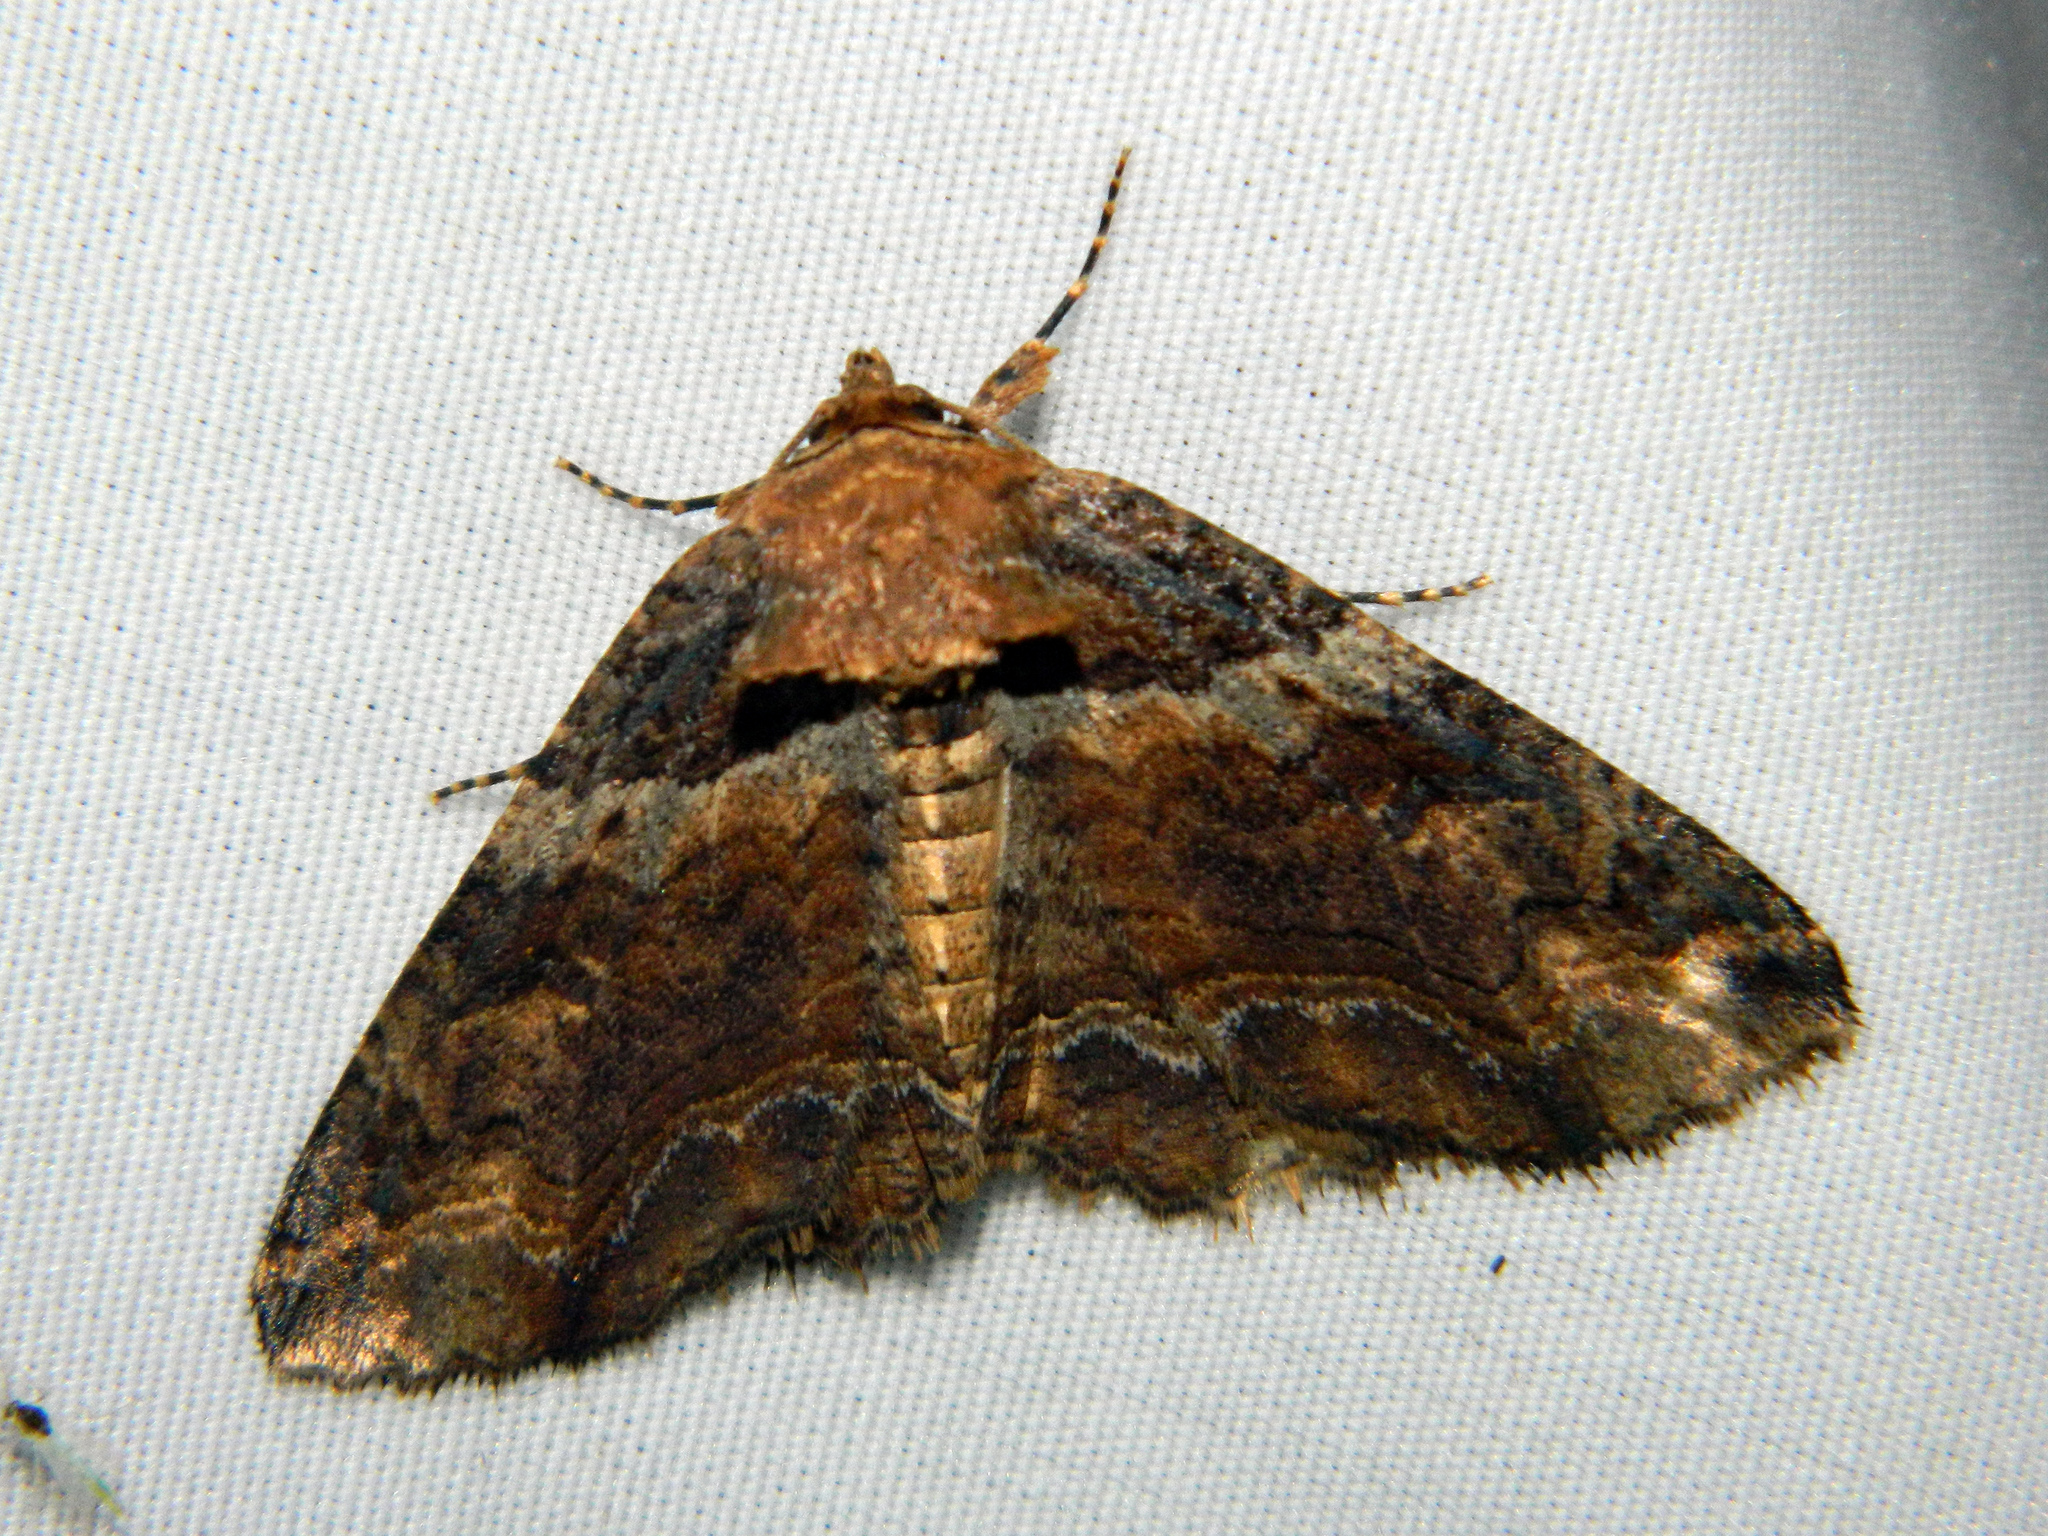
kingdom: Animalia
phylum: Arthropoda
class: Insecta
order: Lepidoptera
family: Erebidae
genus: Zale
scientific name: Zale minerea
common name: Colorful zale moth
